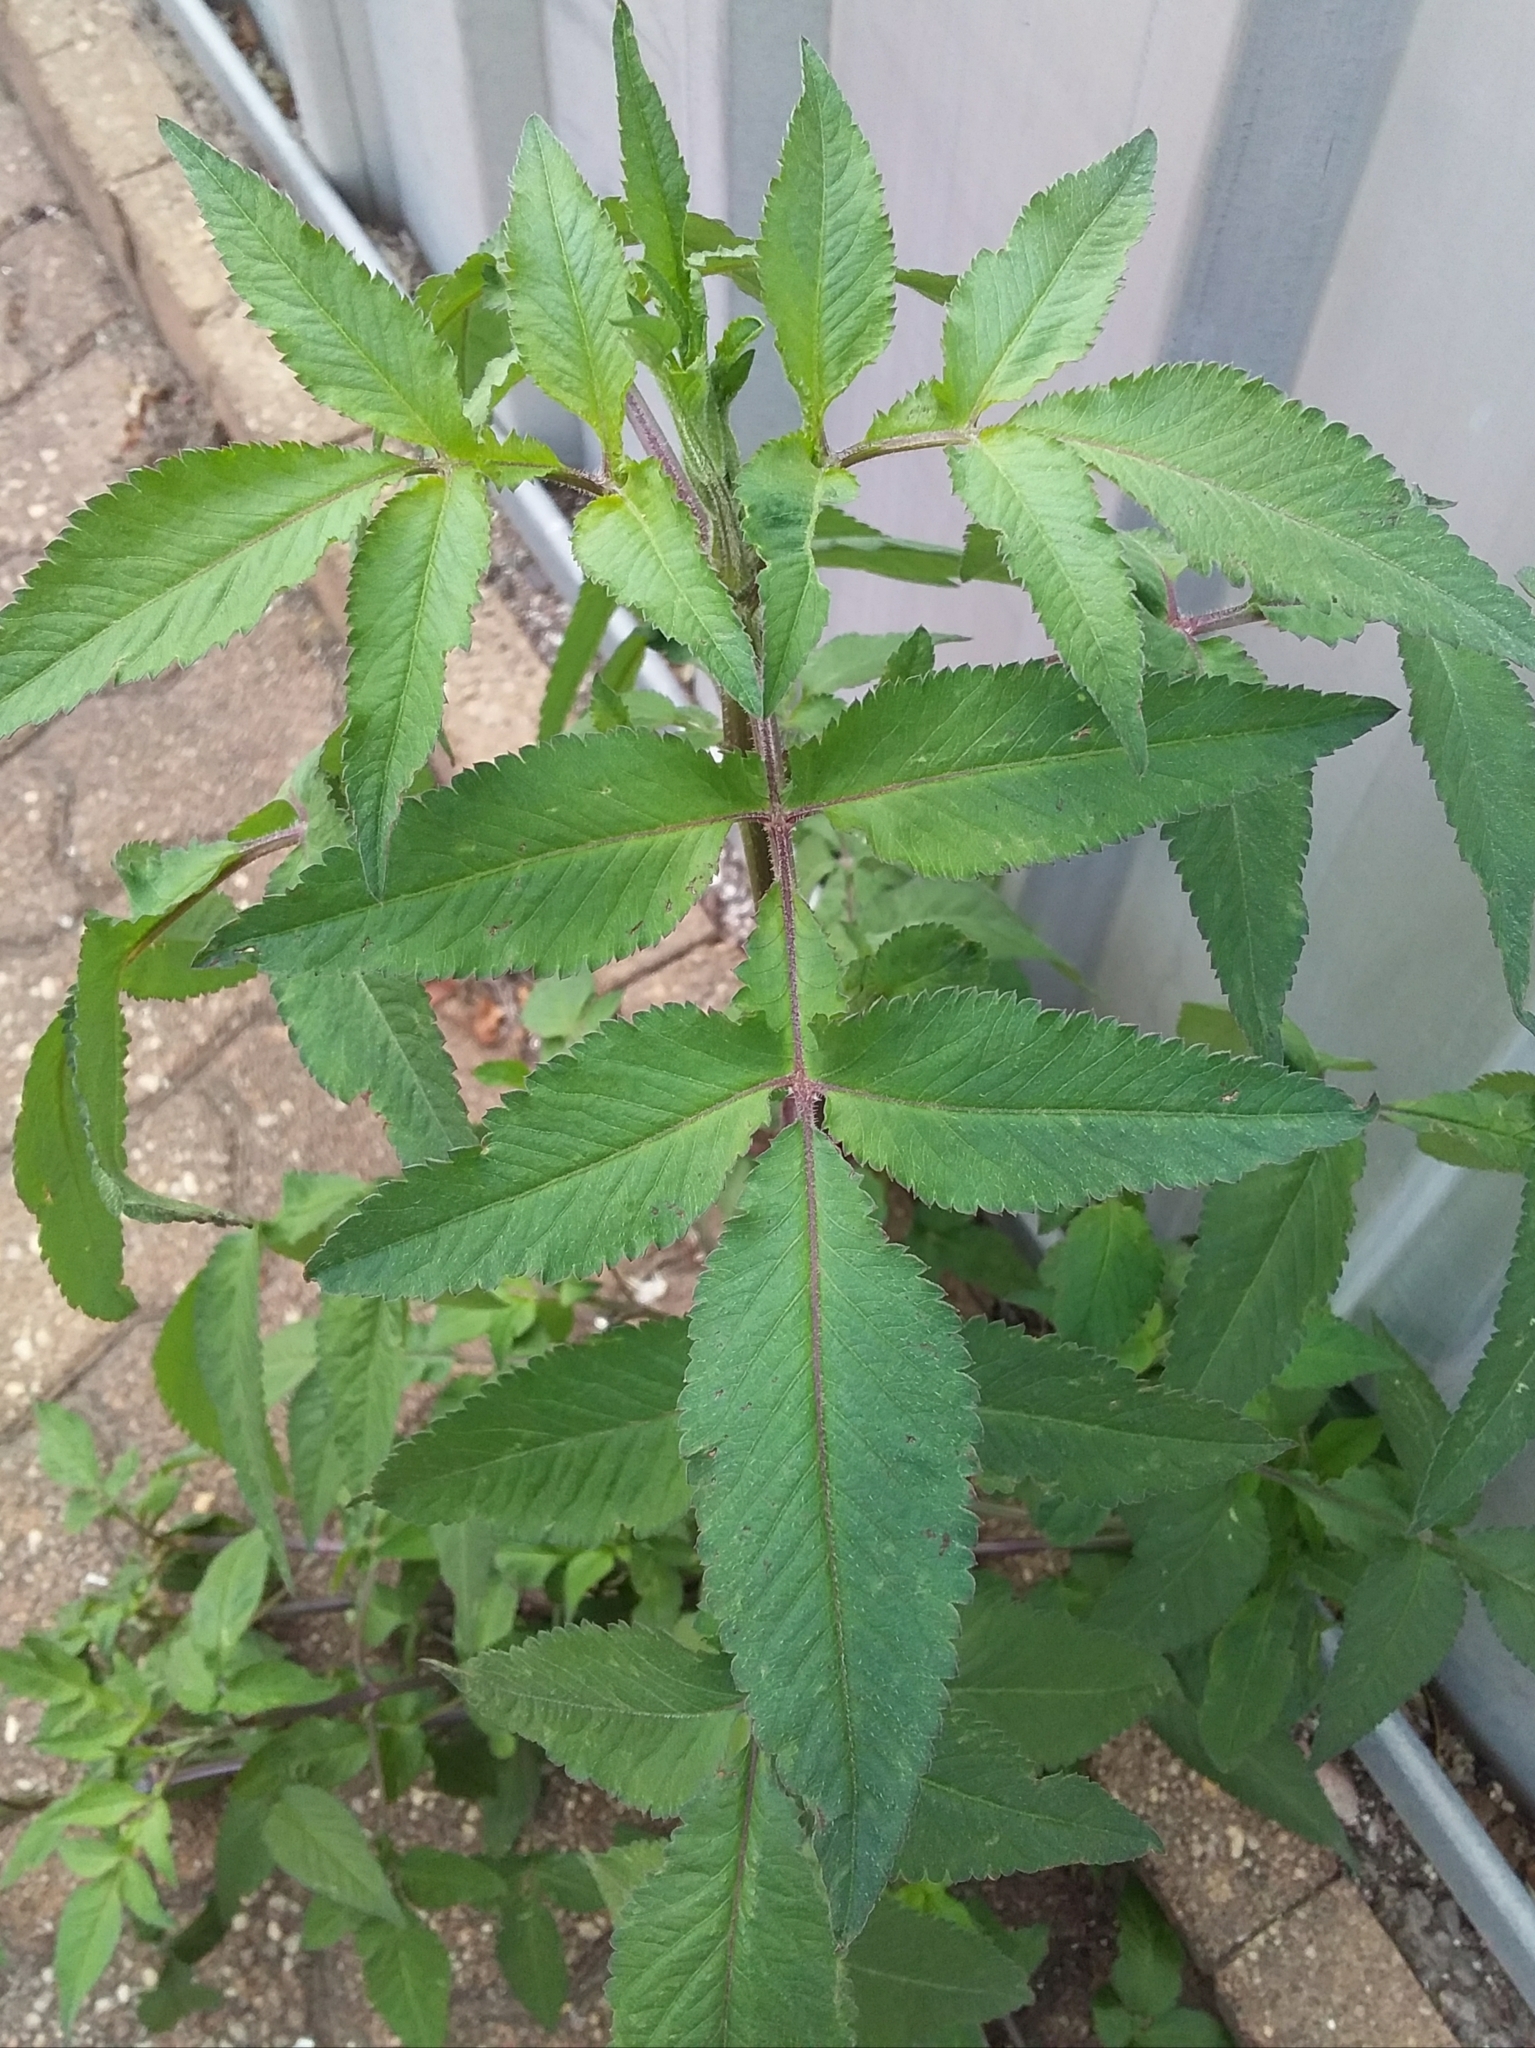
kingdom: Plantae
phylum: Tracheophyta
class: Magnoliopsida
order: Asterales
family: Asteraceae
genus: Bidens
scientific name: Bidens pilosa
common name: Black-jack
